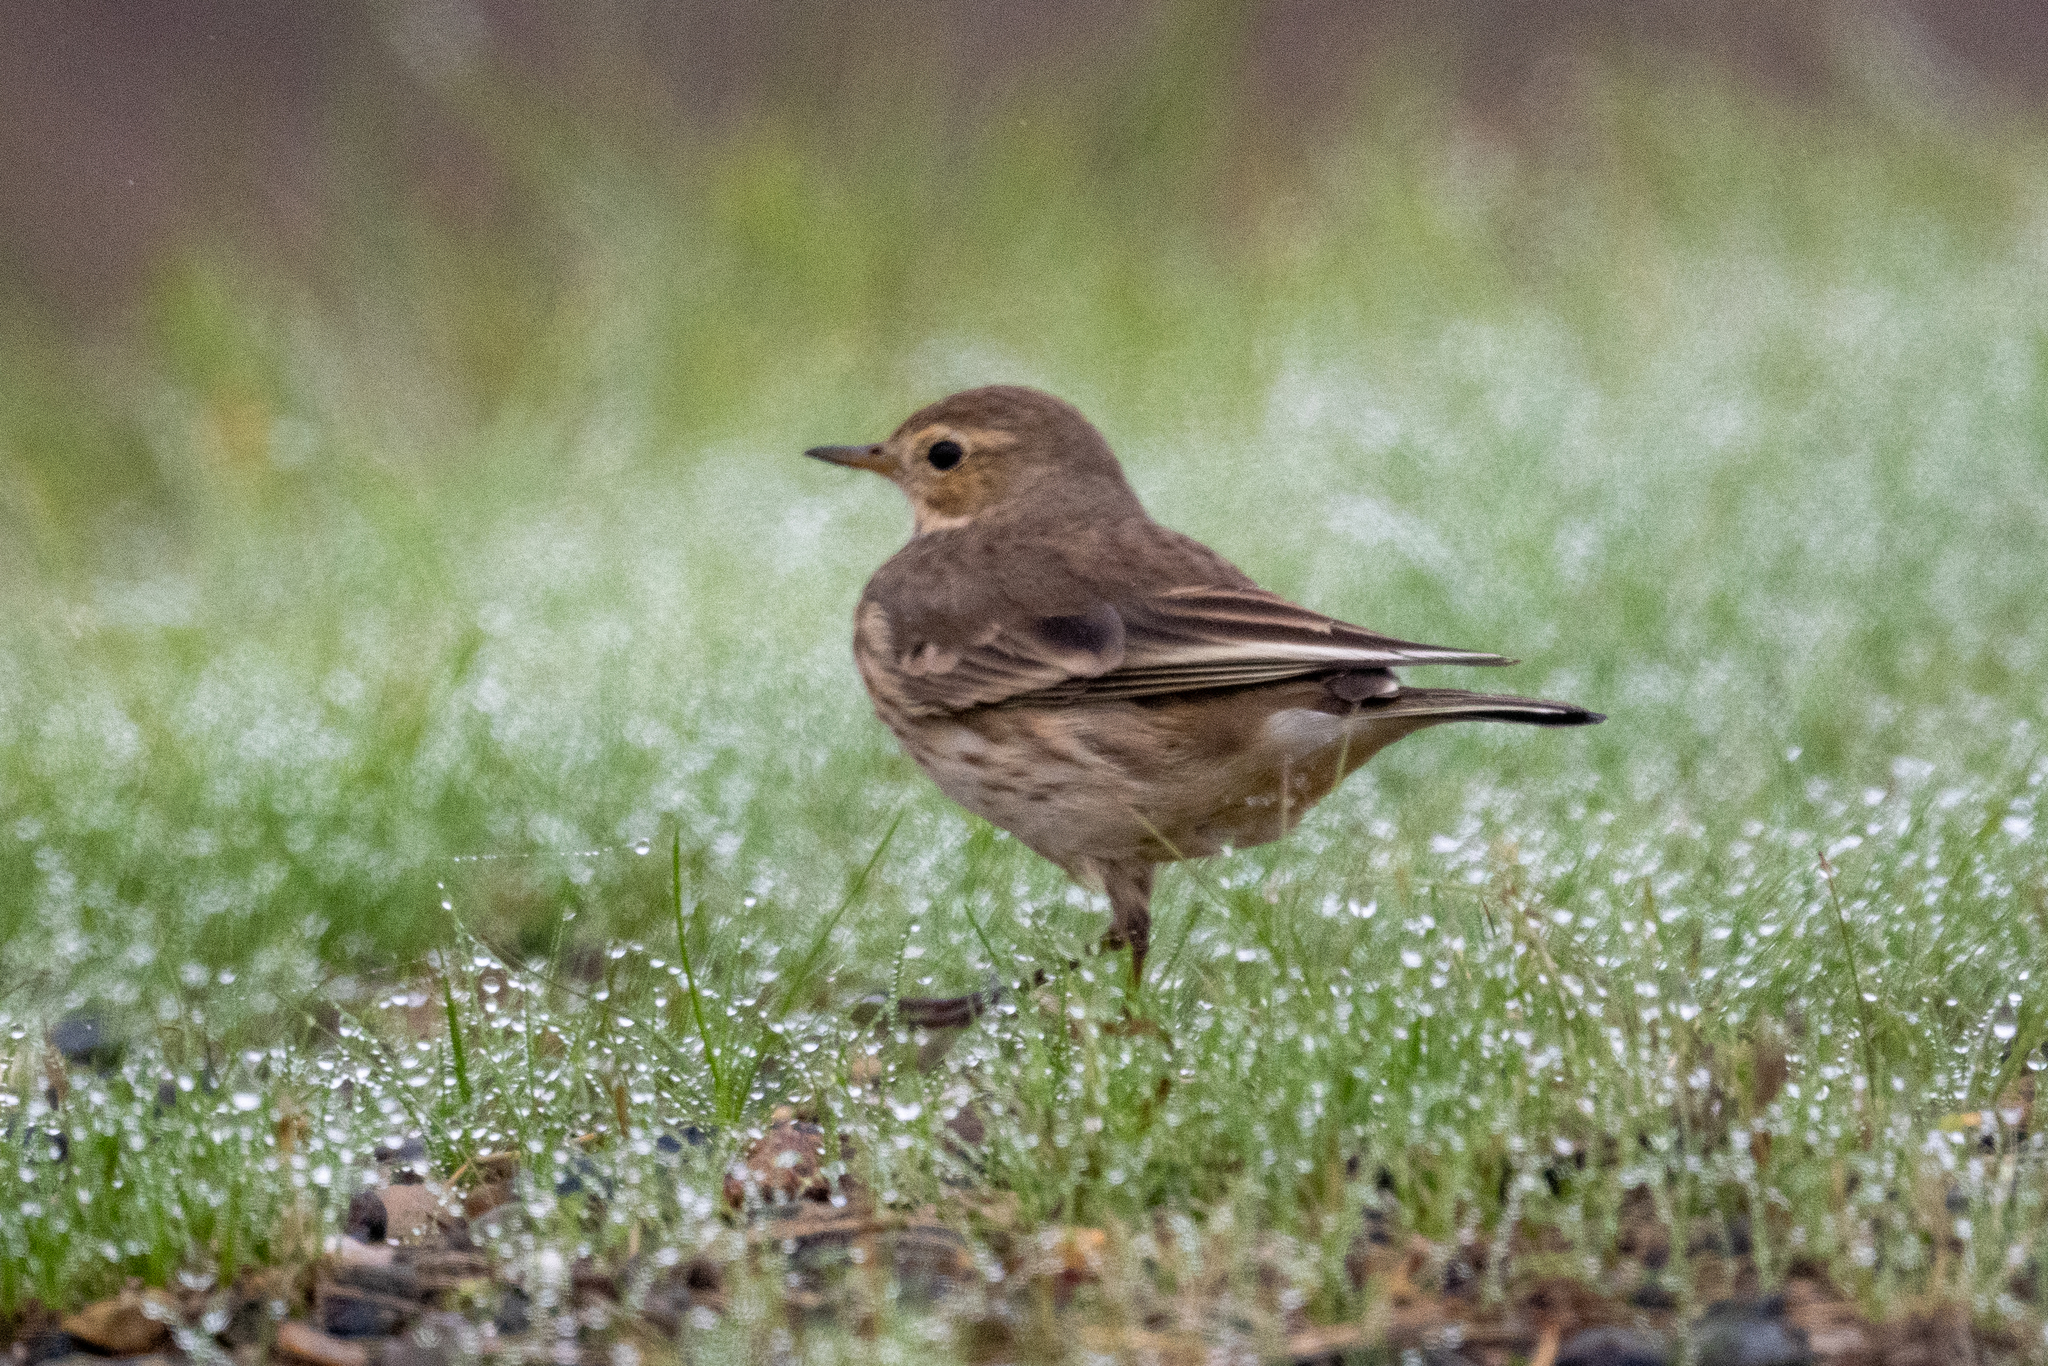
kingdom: Animalia
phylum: Chordata
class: Aves
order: Passeriformes
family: Motacillidae
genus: Anthus
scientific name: Anthus rubescens
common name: Buff-bellied pipit
